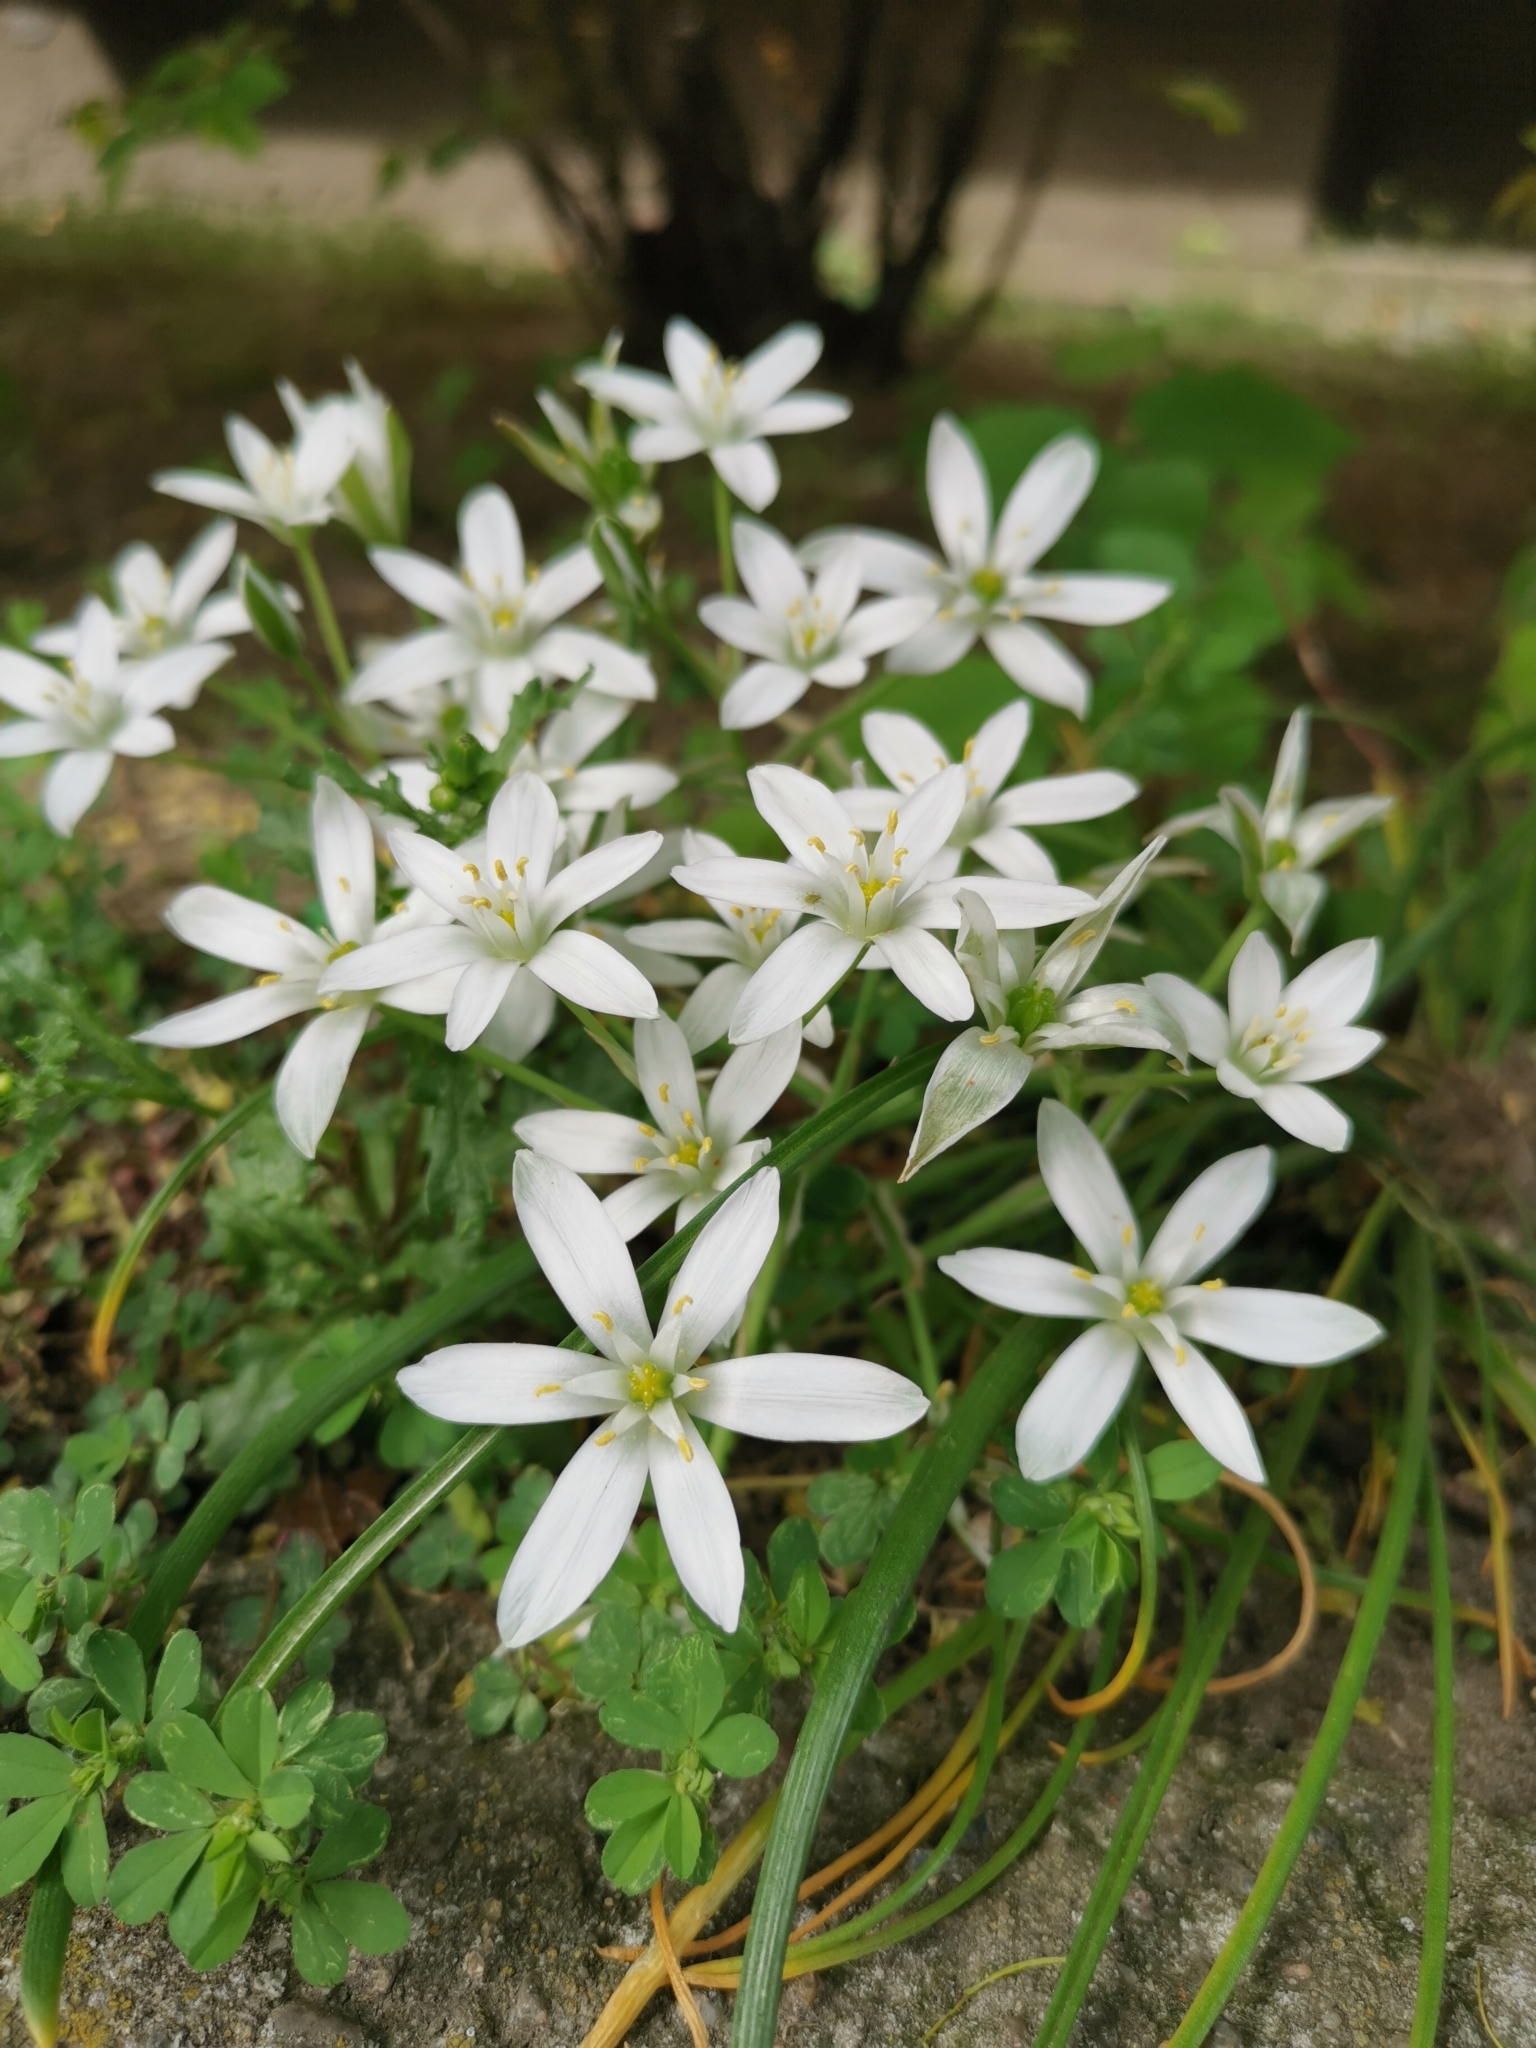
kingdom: Plantae
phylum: Tracheophyta
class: Liliopsida
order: Asparagales
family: Asparagaceae
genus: Ornithogalum
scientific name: Ornithogalum umbellatum
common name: Garden star-of-bethlehem
